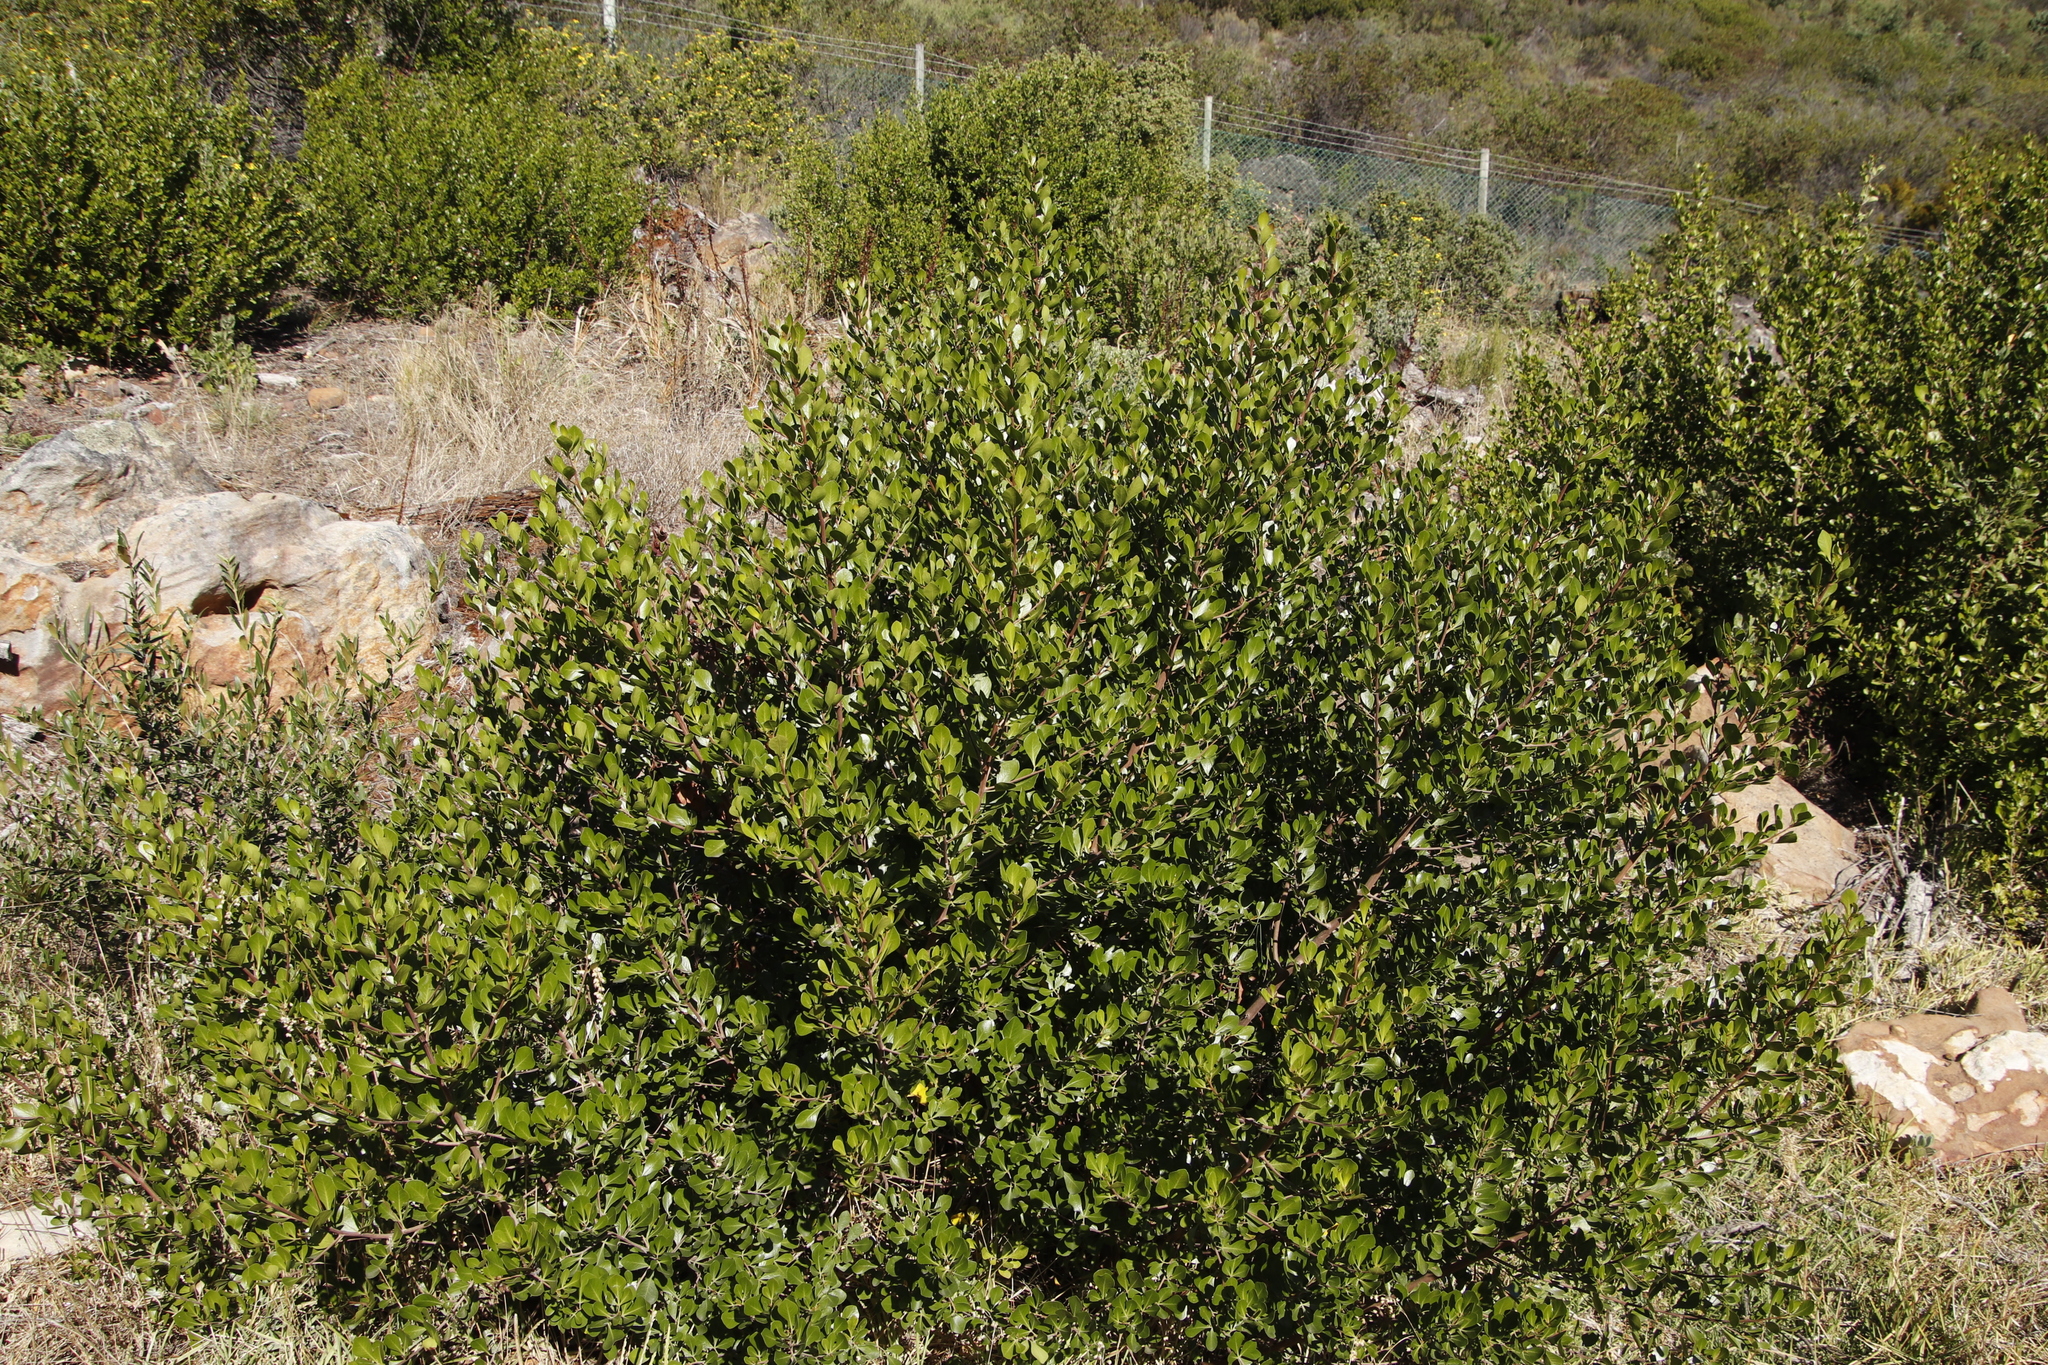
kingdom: Plantae
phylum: Tracheophyta
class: Magnoliopsida
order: Sapindales
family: Anacardiaceae
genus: Searsia
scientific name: Searsia lucida
